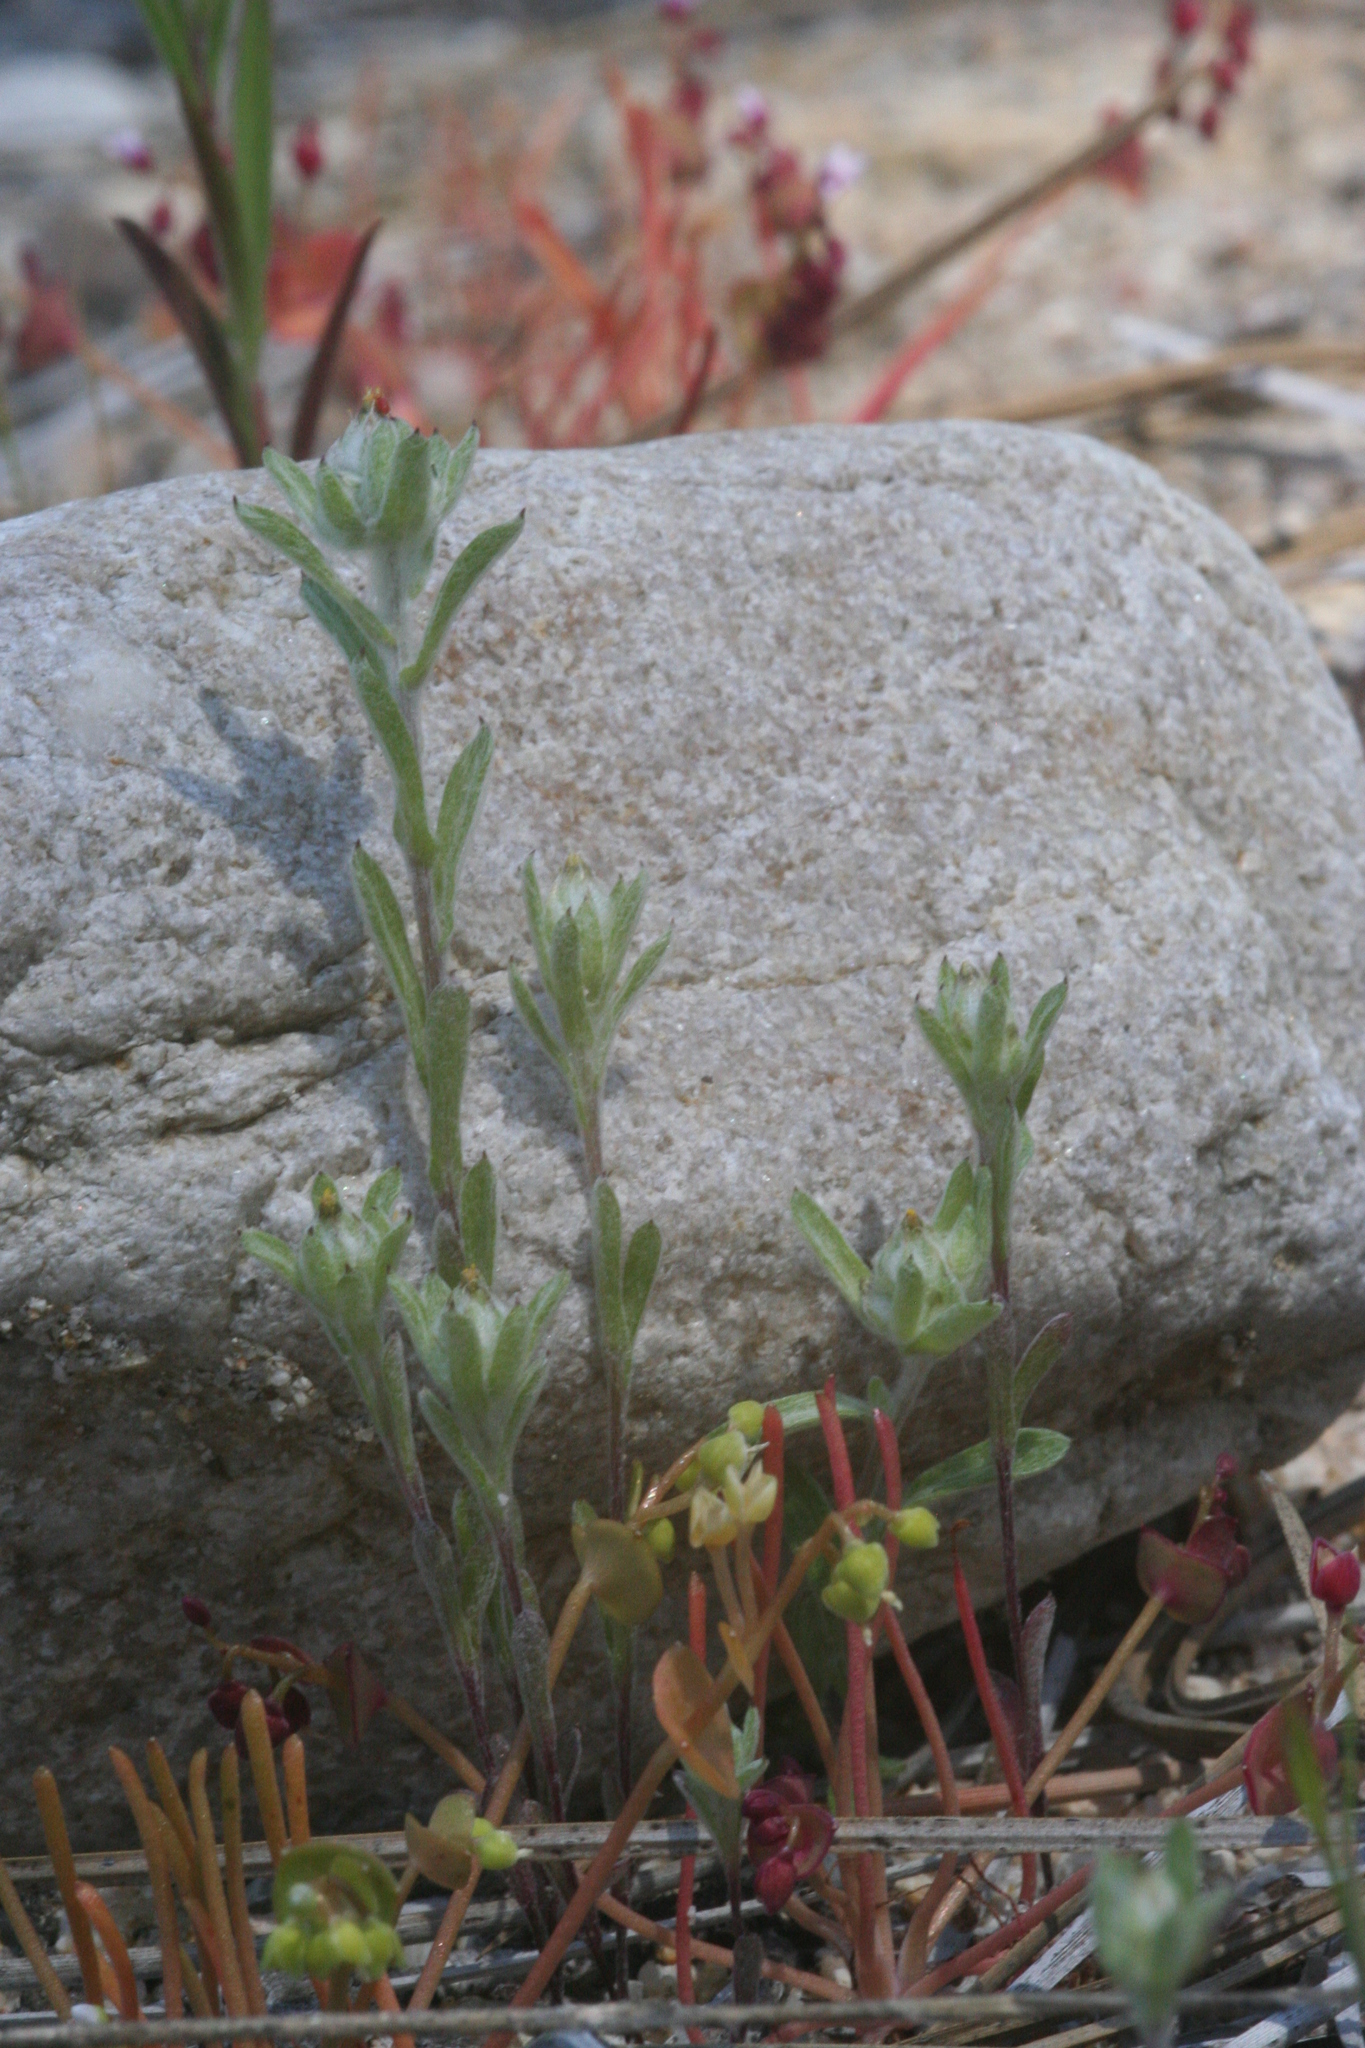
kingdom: Plantae
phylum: Tracheophyta
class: Magnoliopsida
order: Asterales
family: Asteraceae
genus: Logfia
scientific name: Logfia californica
